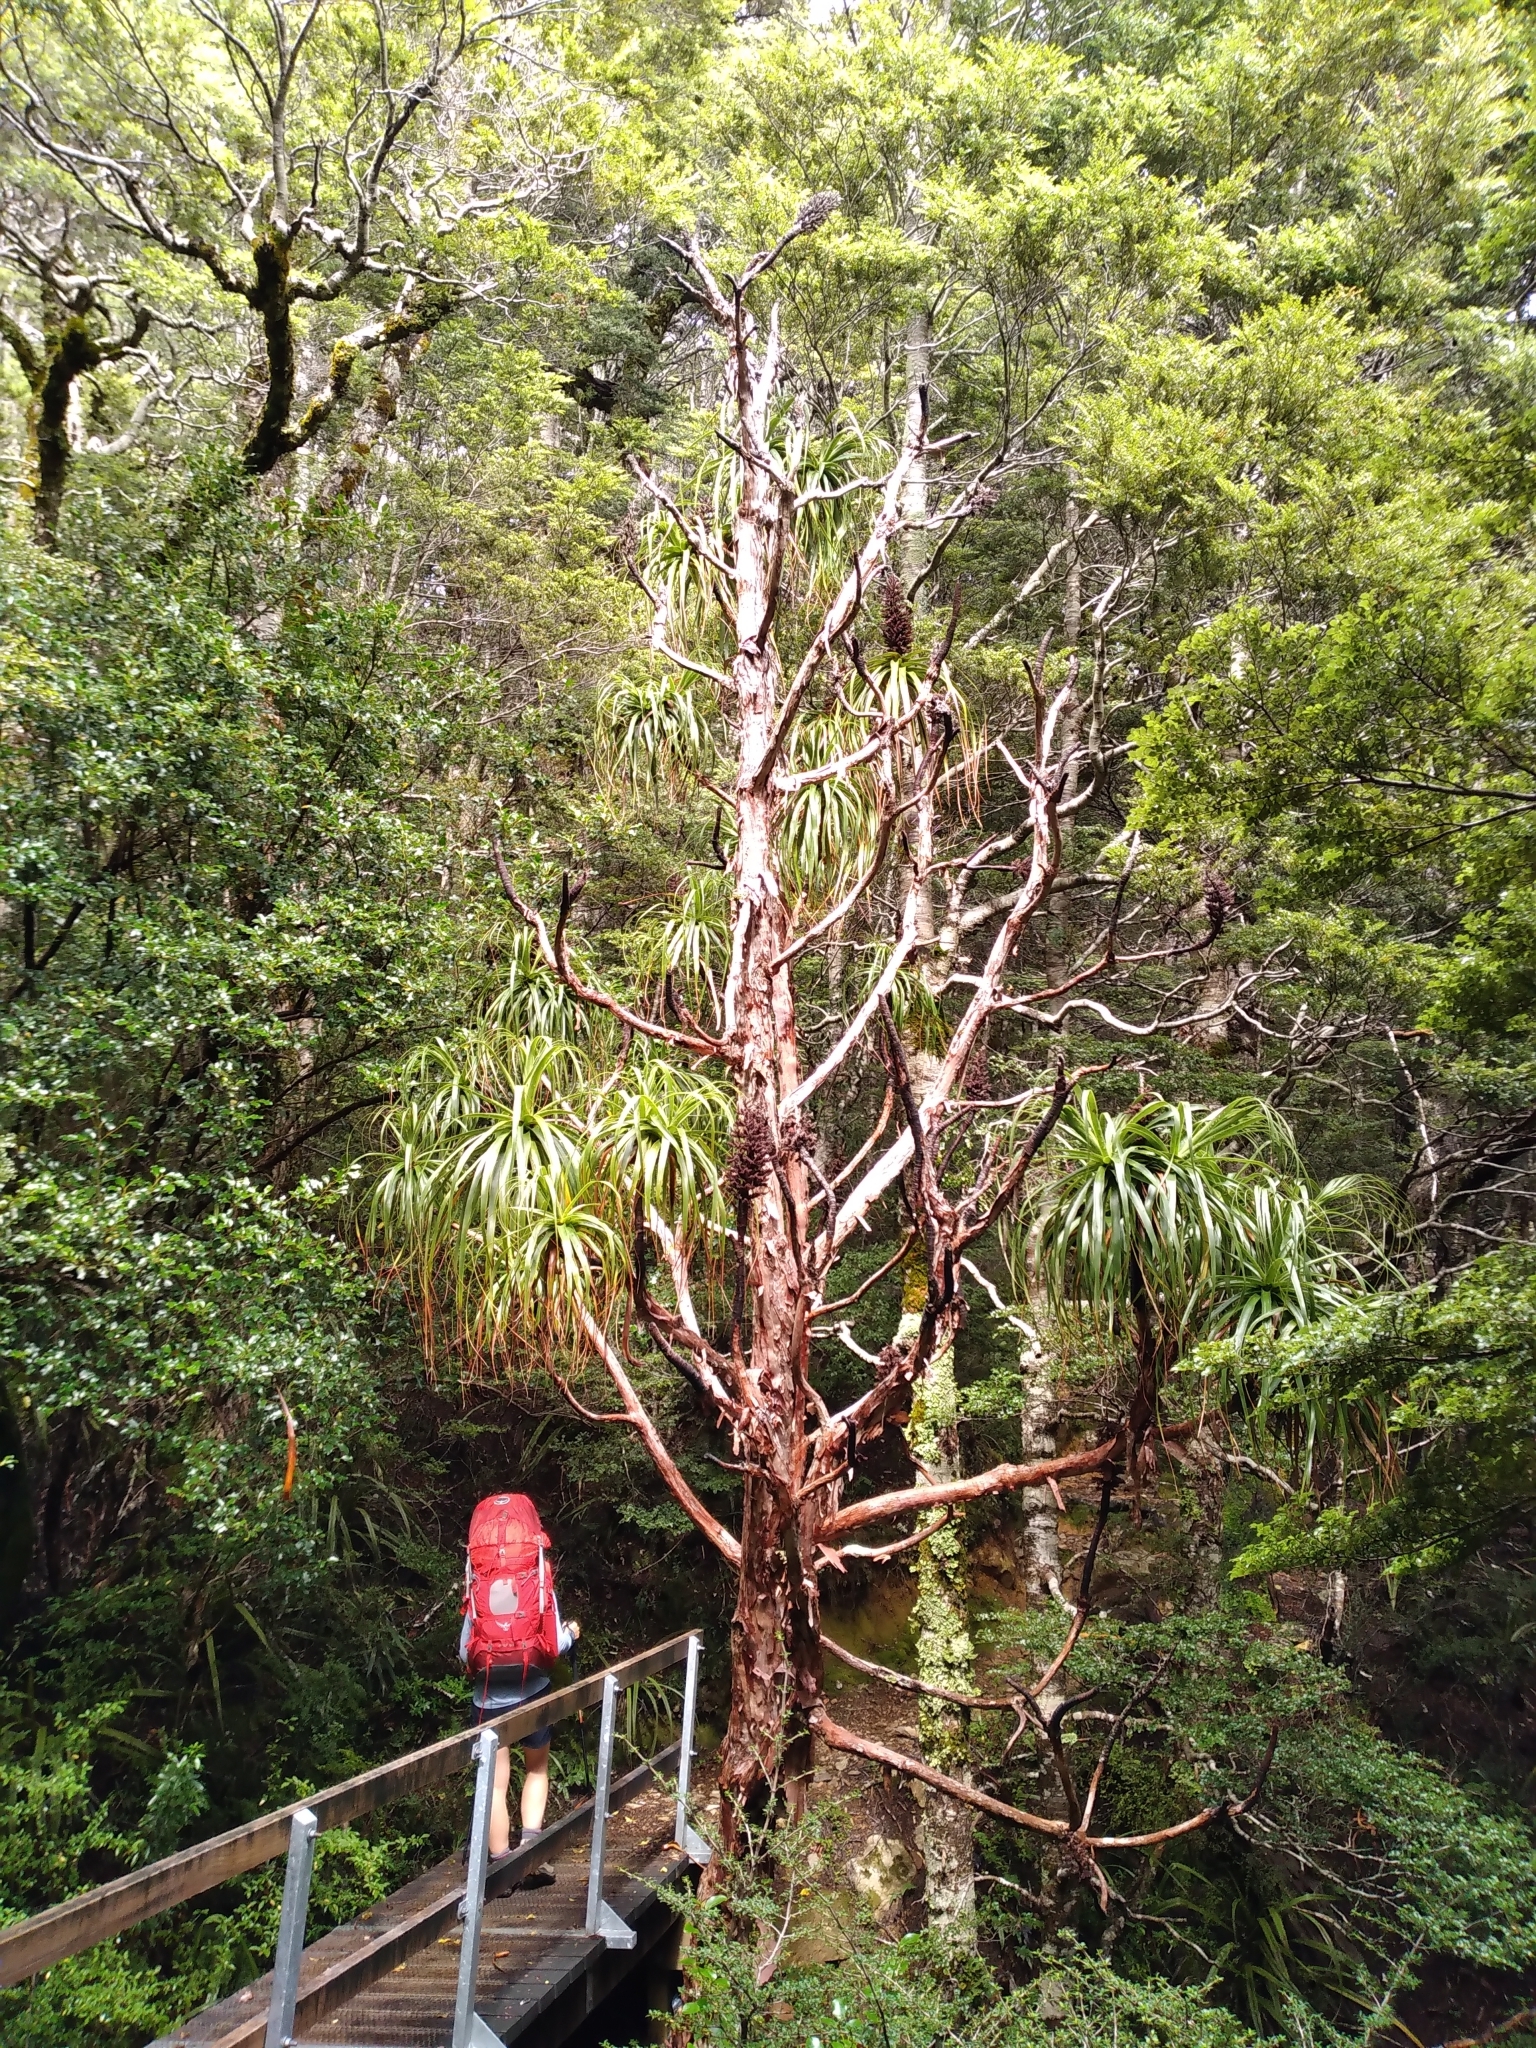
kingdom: Plantae
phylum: Tracheophyta
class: Magnoliopsida
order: Ericales
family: Ericaceae
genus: Dracophyllum
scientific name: Dracophyllum traversii
